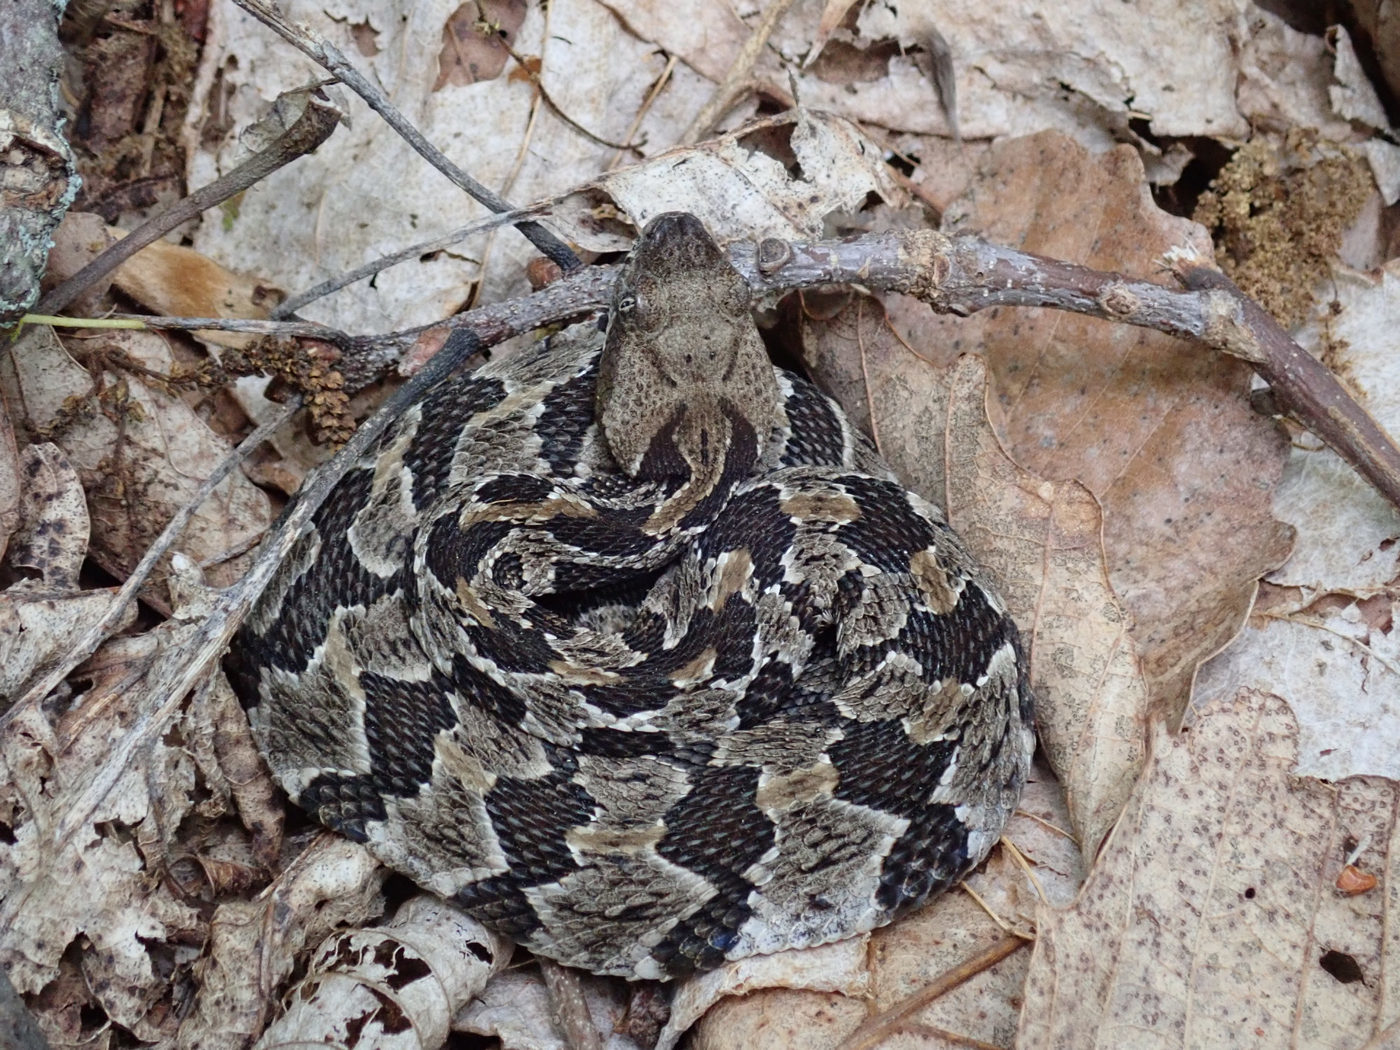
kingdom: Animalia
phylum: Chordata
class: Squamata
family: Viperidae
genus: Crotalus
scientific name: Crotalus horridus
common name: Timber rattlesnake
